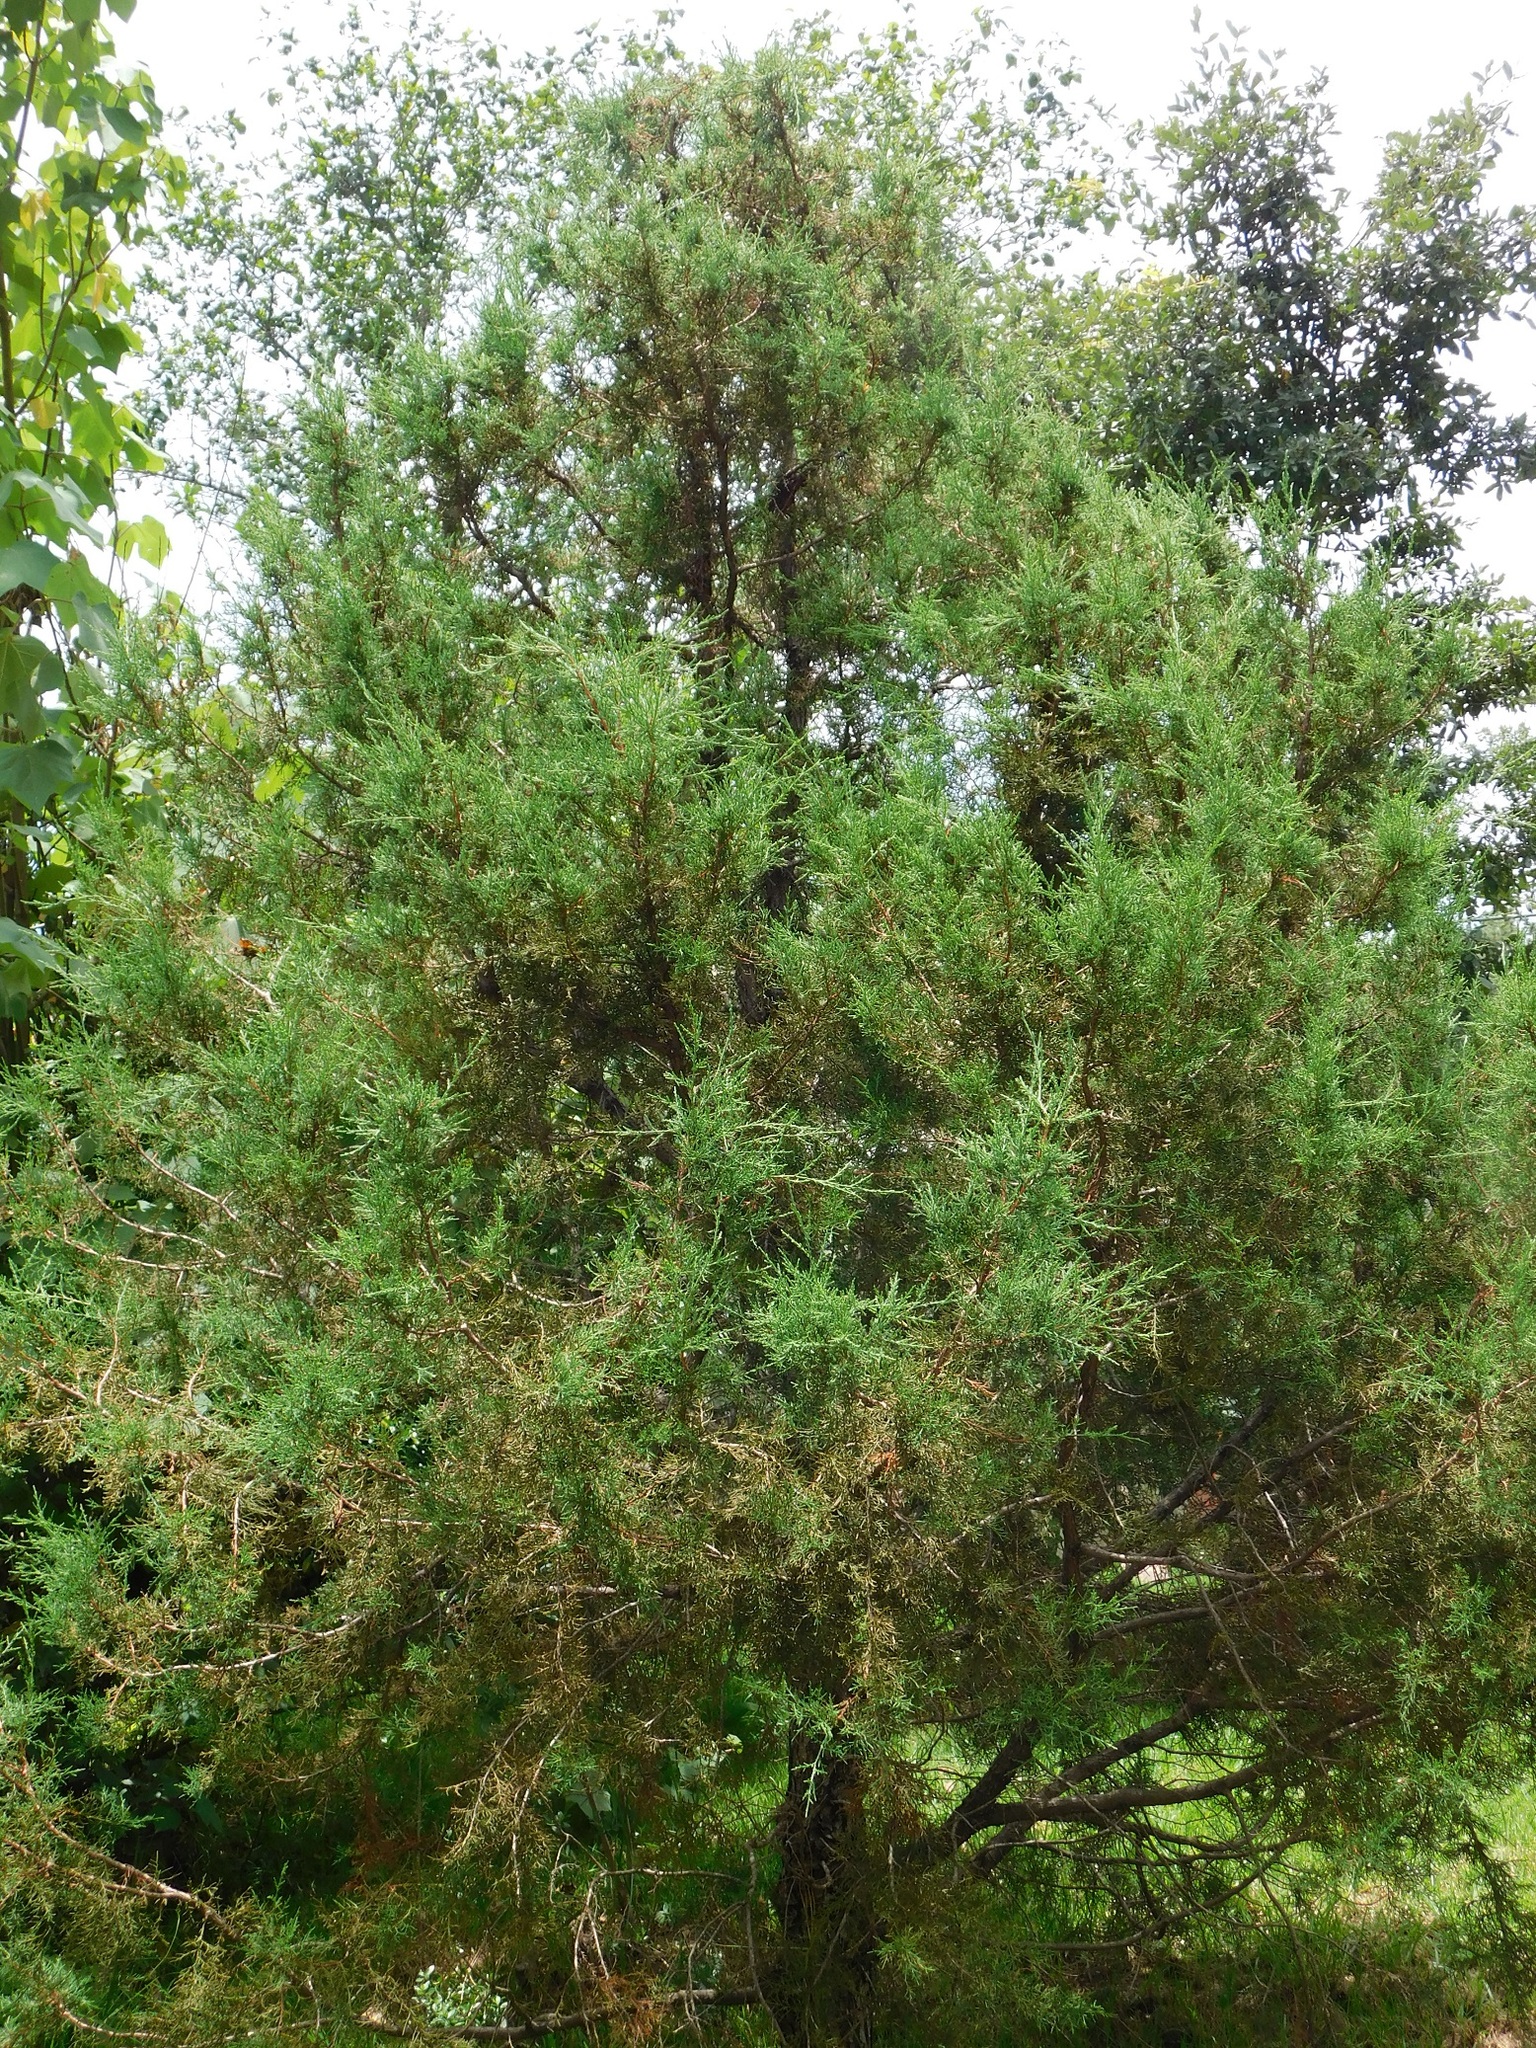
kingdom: Plantae
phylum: Tracheophyta
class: Pinopsida
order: Pinales
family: Cupressaceae
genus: Juniperus
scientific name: Juniperus gamboana
